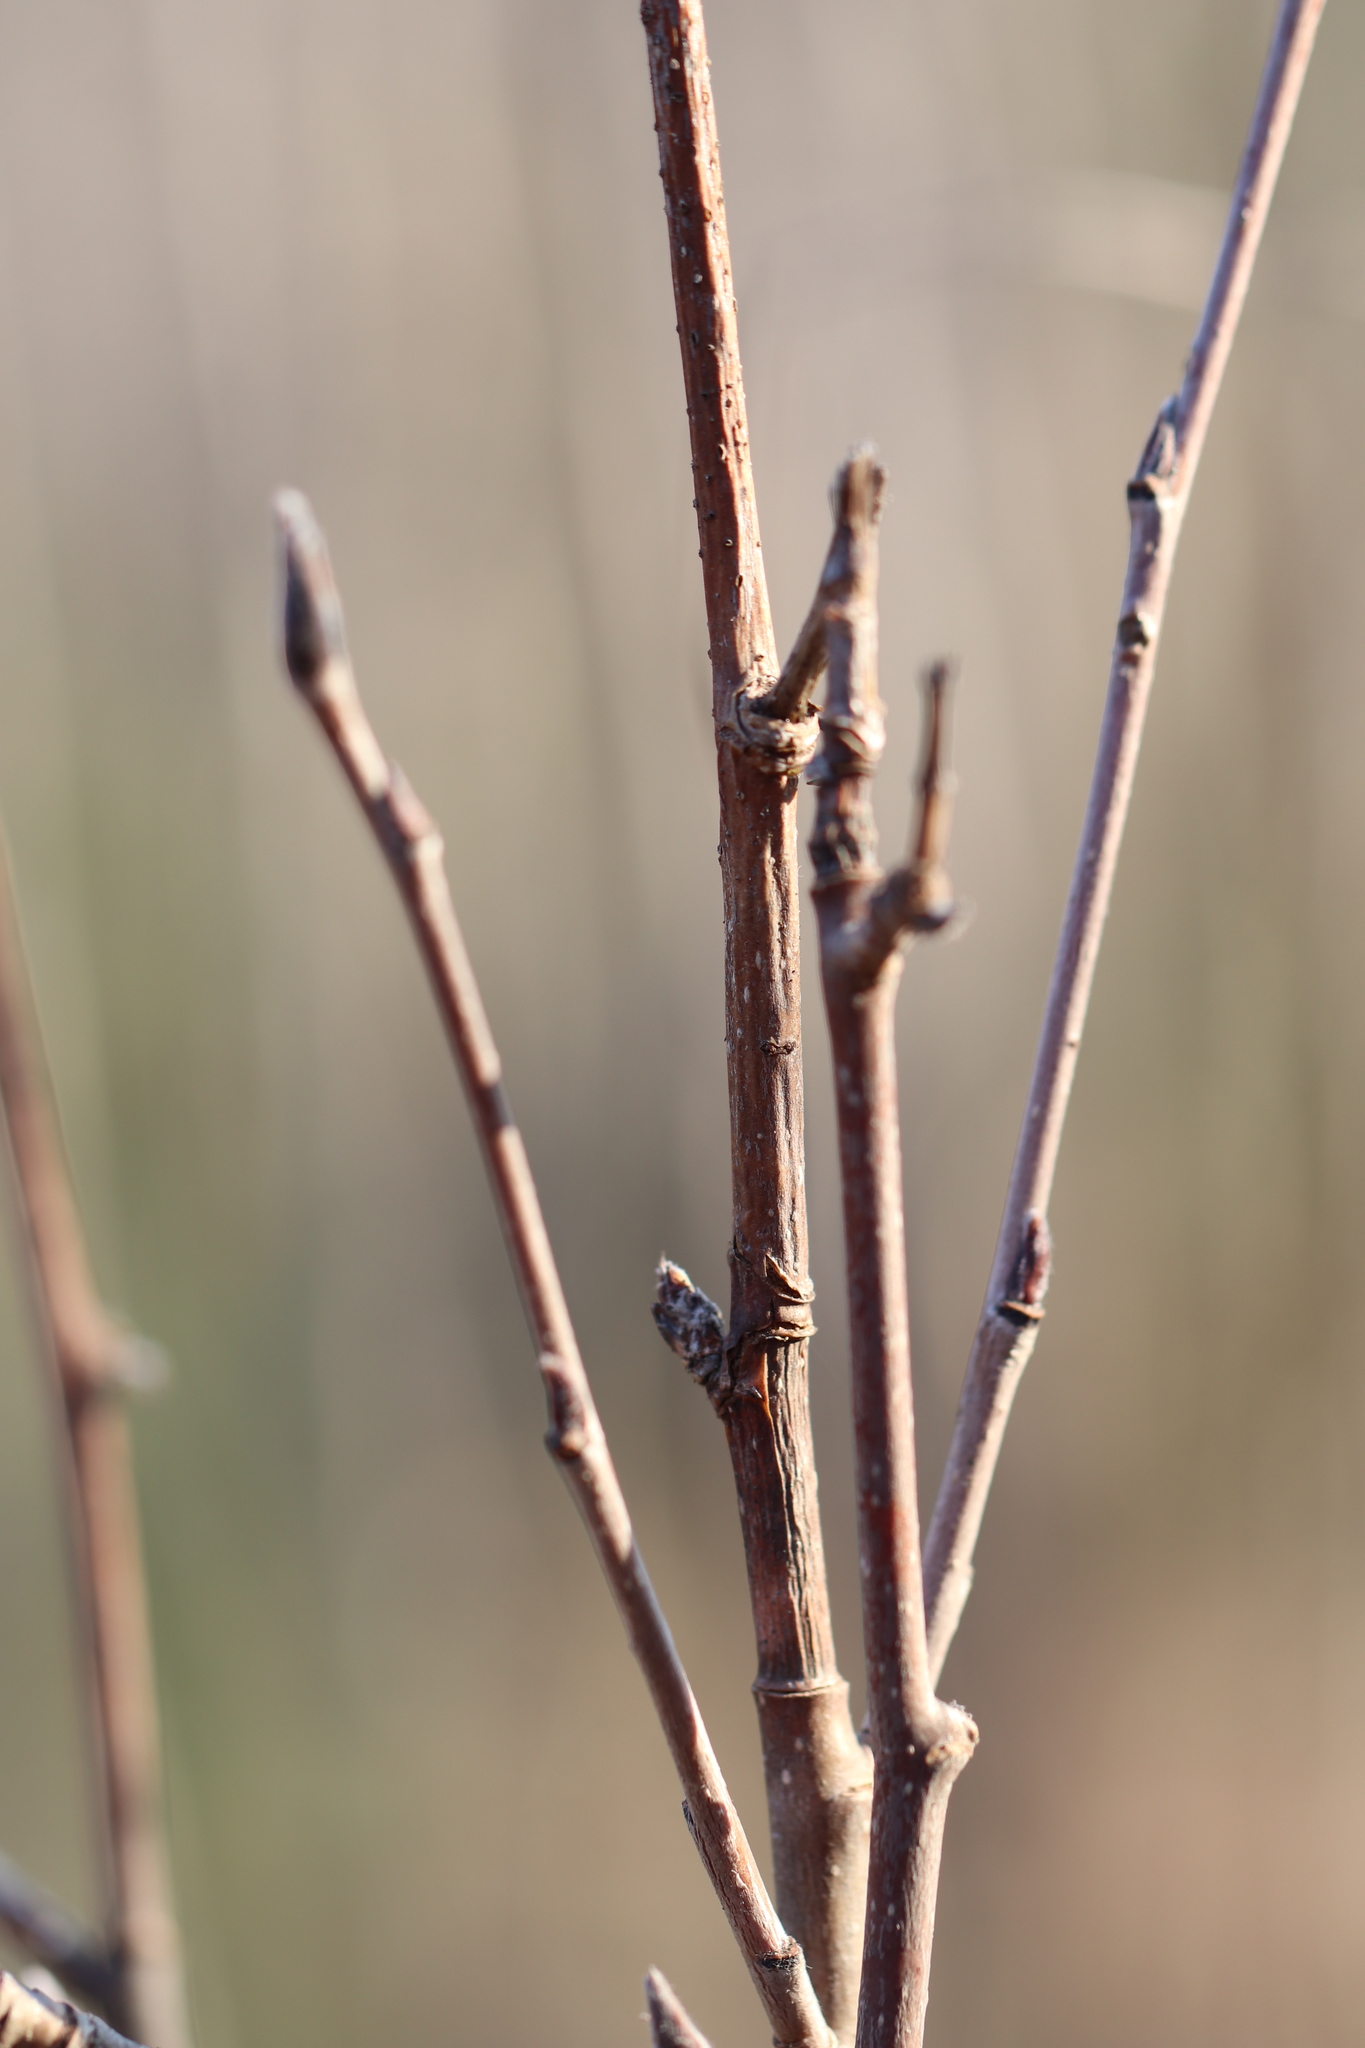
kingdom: Plantae
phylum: Tracheophyta
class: Magnoliopsida
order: Rosales
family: Rosaceae
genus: Sorbus
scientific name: Sorbus aucuparia
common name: Rowan
